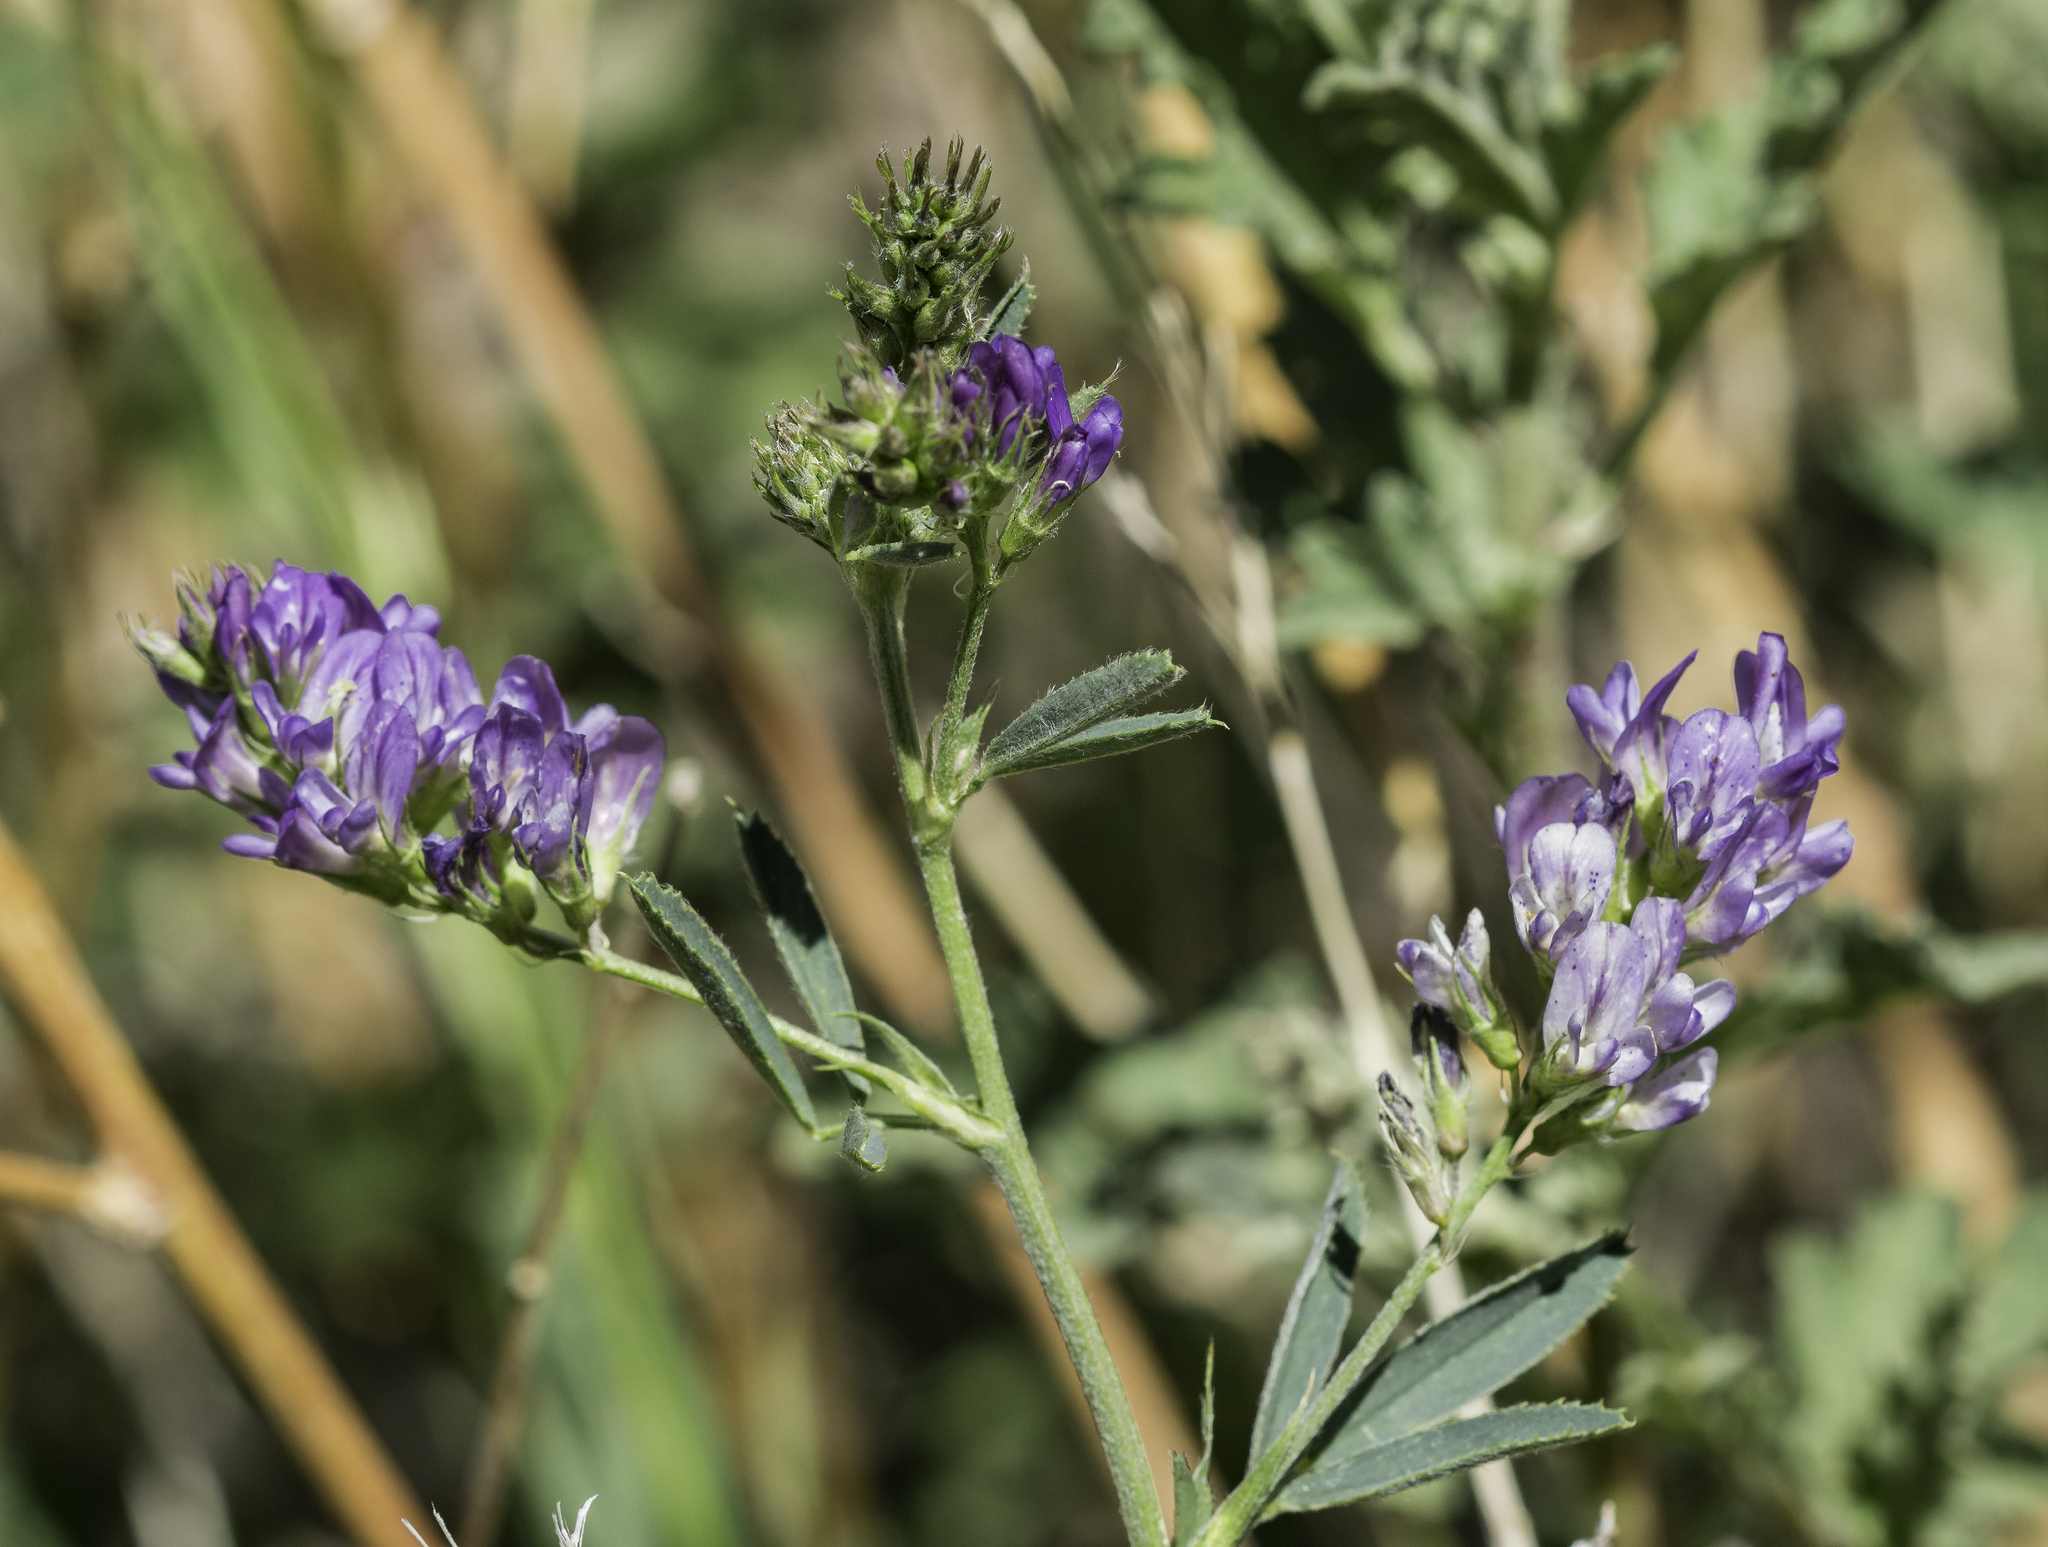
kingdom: Plantae
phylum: Tracheophyta
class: Magnoliopsida
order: Fabales
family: Fabaceae
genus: Medicago
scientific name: Medicago sativa
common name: Alfalfa
